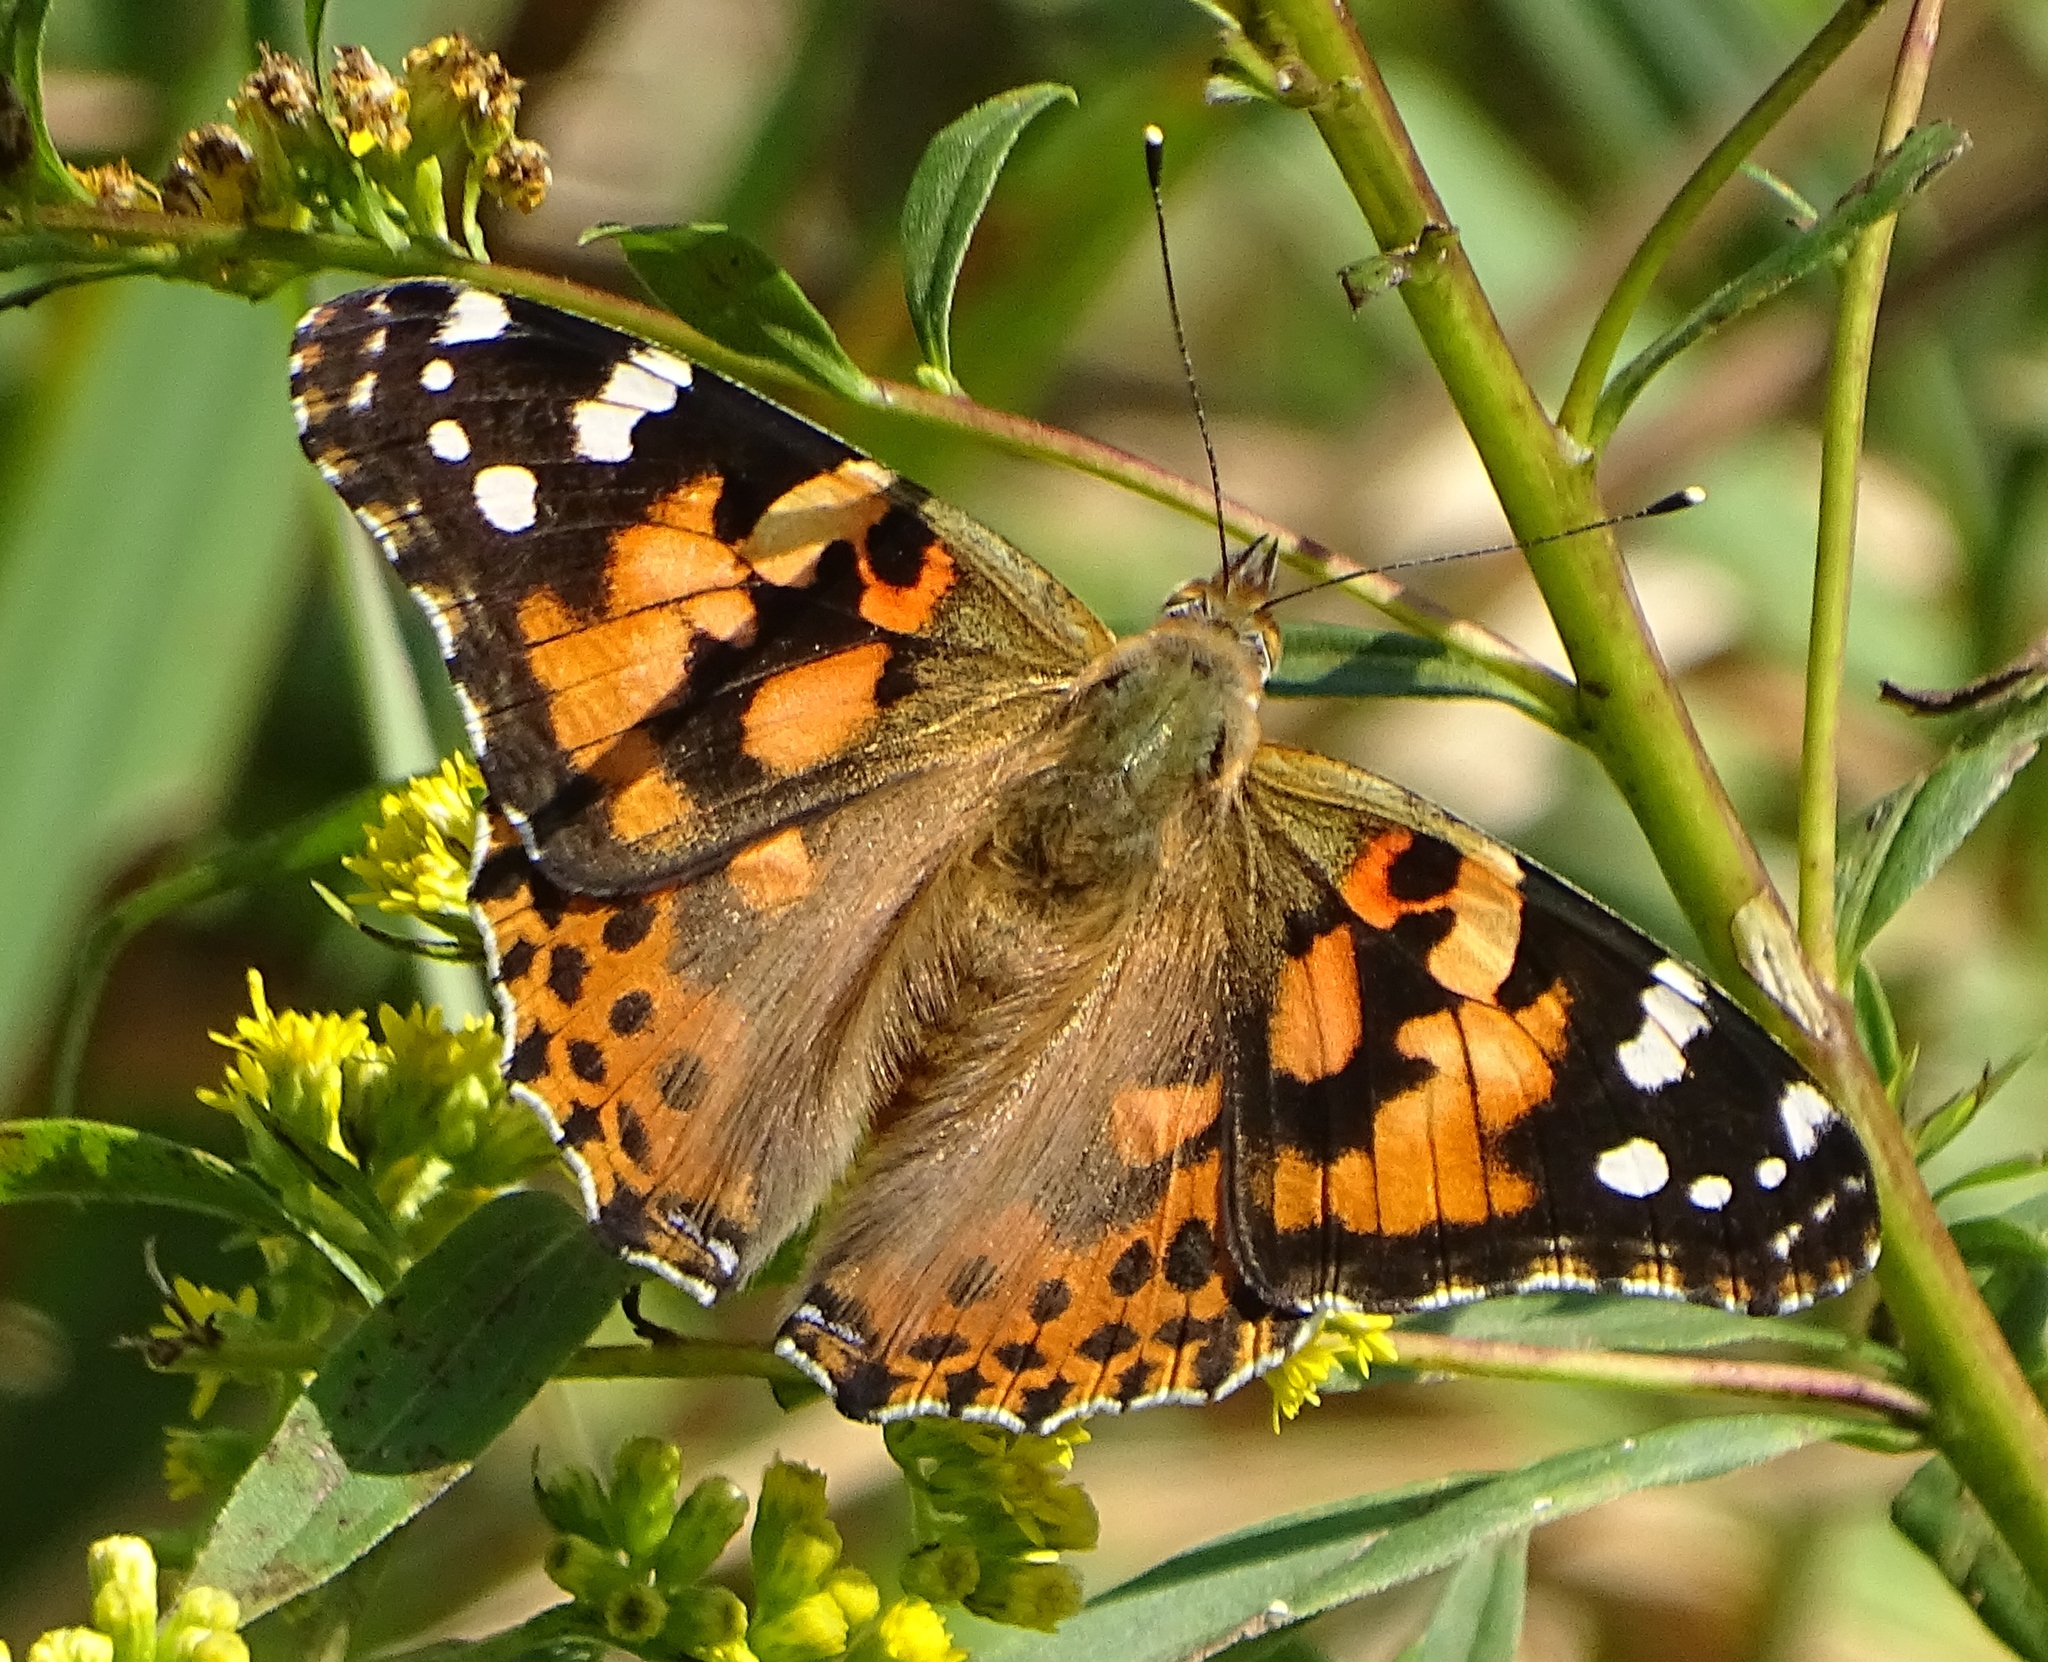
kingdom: Animalia
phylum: Arthropoda
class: Insecta
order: Lepidoptera
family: Nymphalidae
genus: Vanessa
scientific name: Vanessa cardui
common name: Painted lady
